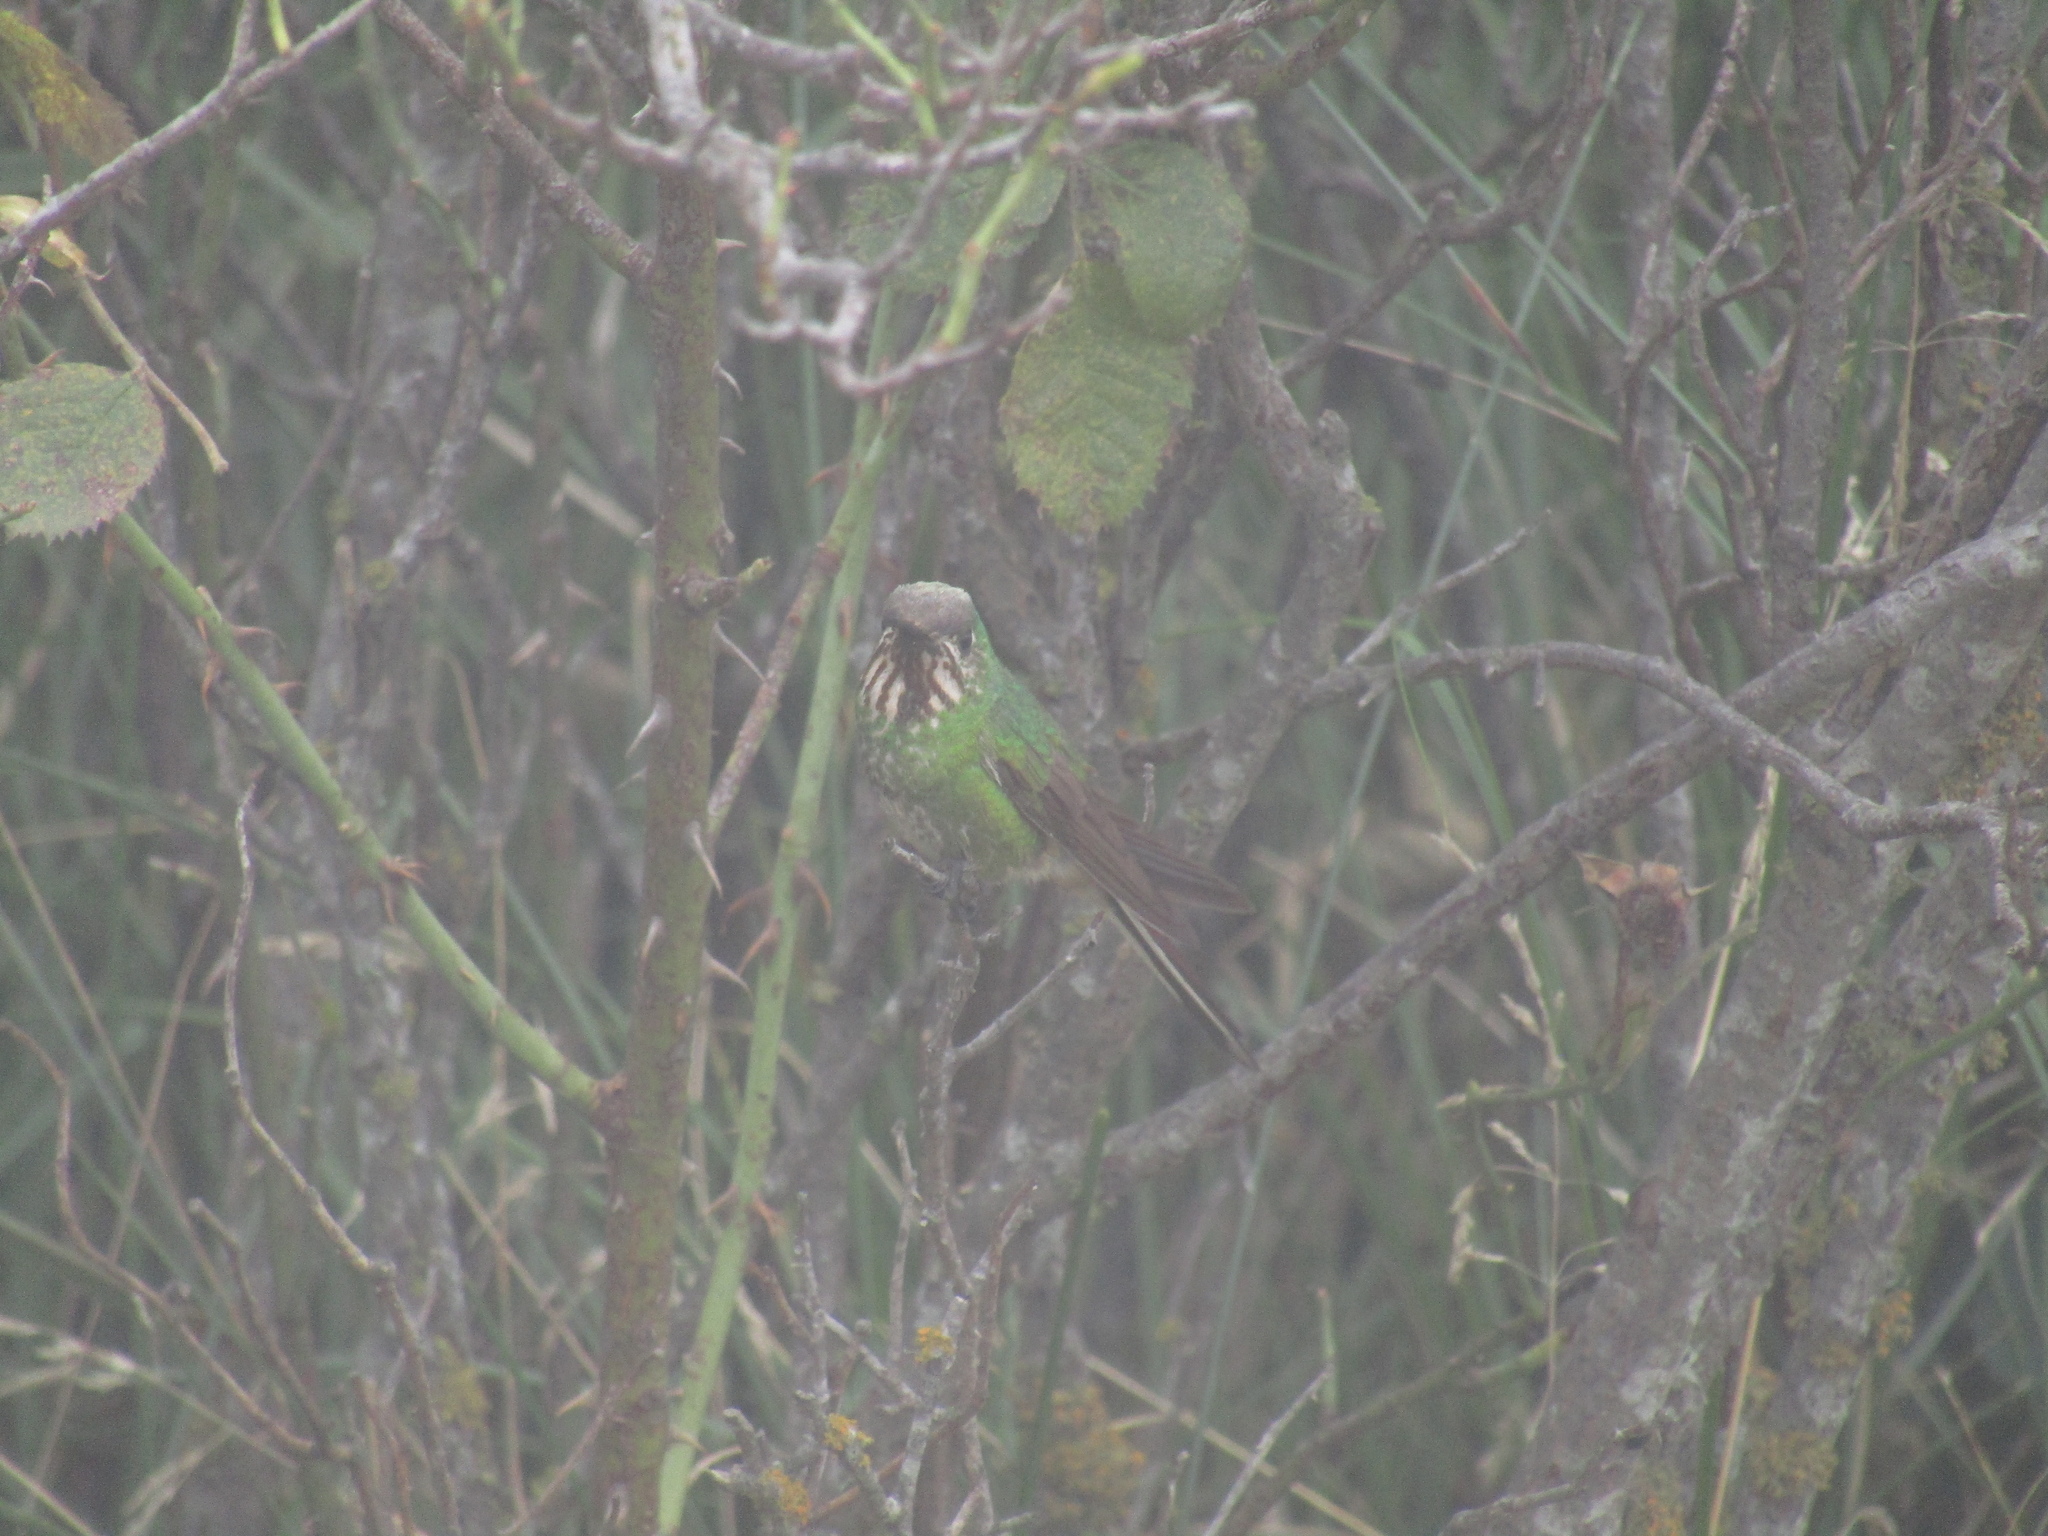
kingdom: Animalia
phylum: Chordata
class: Aves
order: Apodiformes
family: Trochilidae
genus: Sappho
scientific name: Sappho sparganurus
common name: Red-tailed comet
